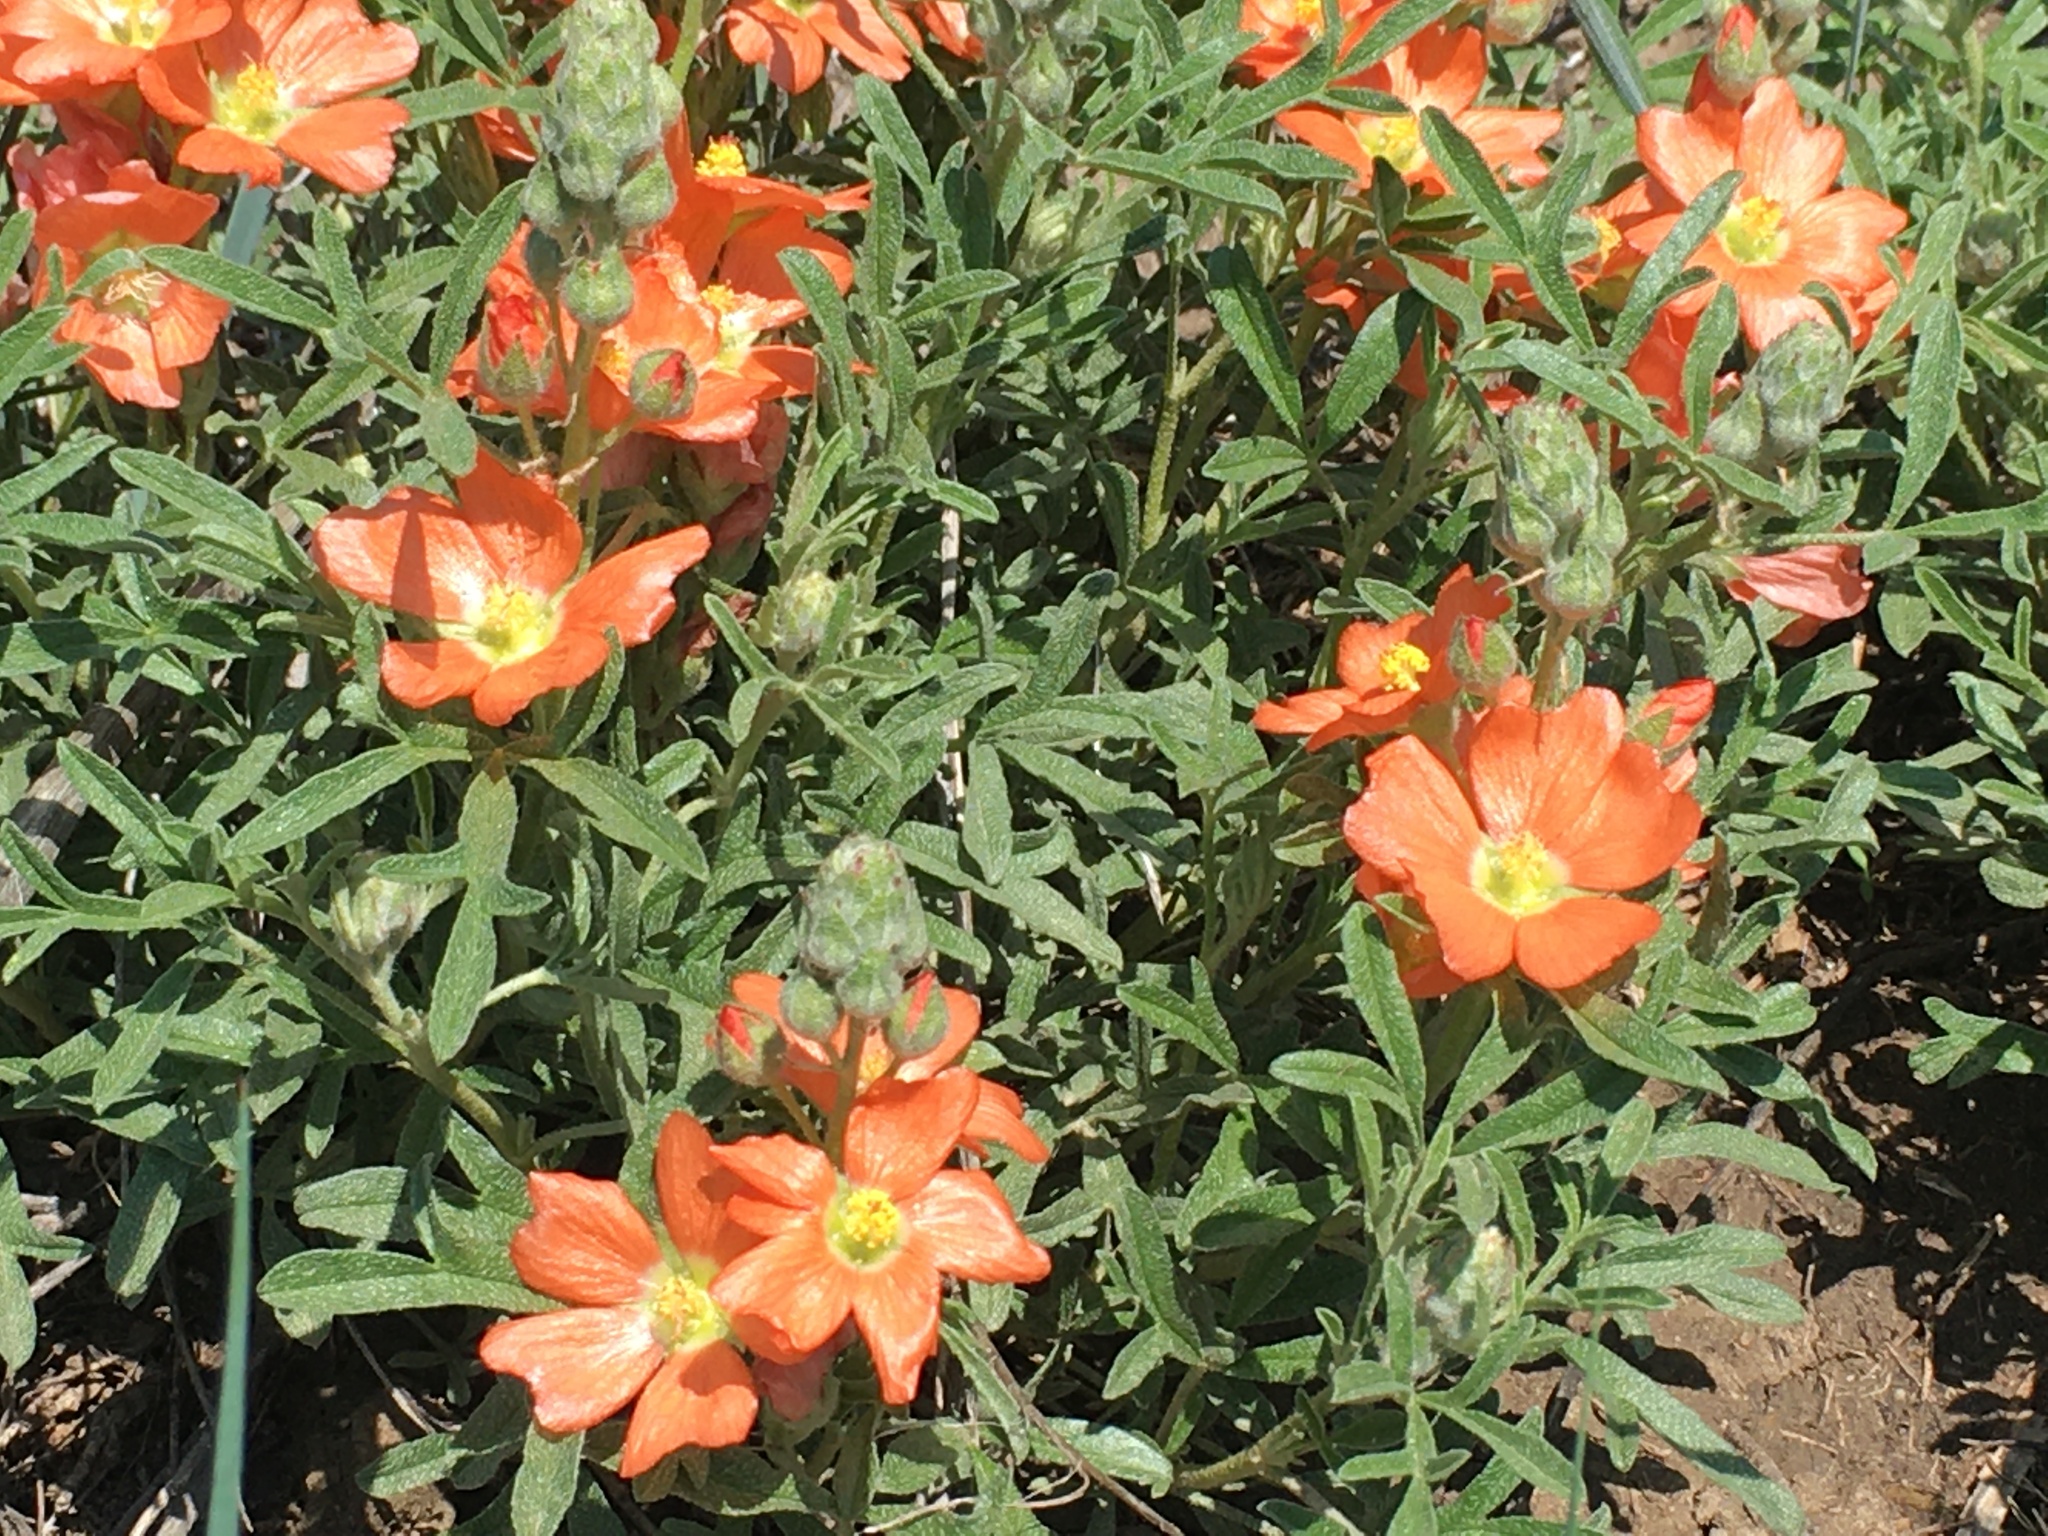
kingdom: Plantae
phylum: Tracheophyta
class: Magnoliopsida
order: Malvales
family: Malvaceae
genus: Sphaeralcea
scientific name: Sphaeralcea coccinea
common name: Moss-rose
